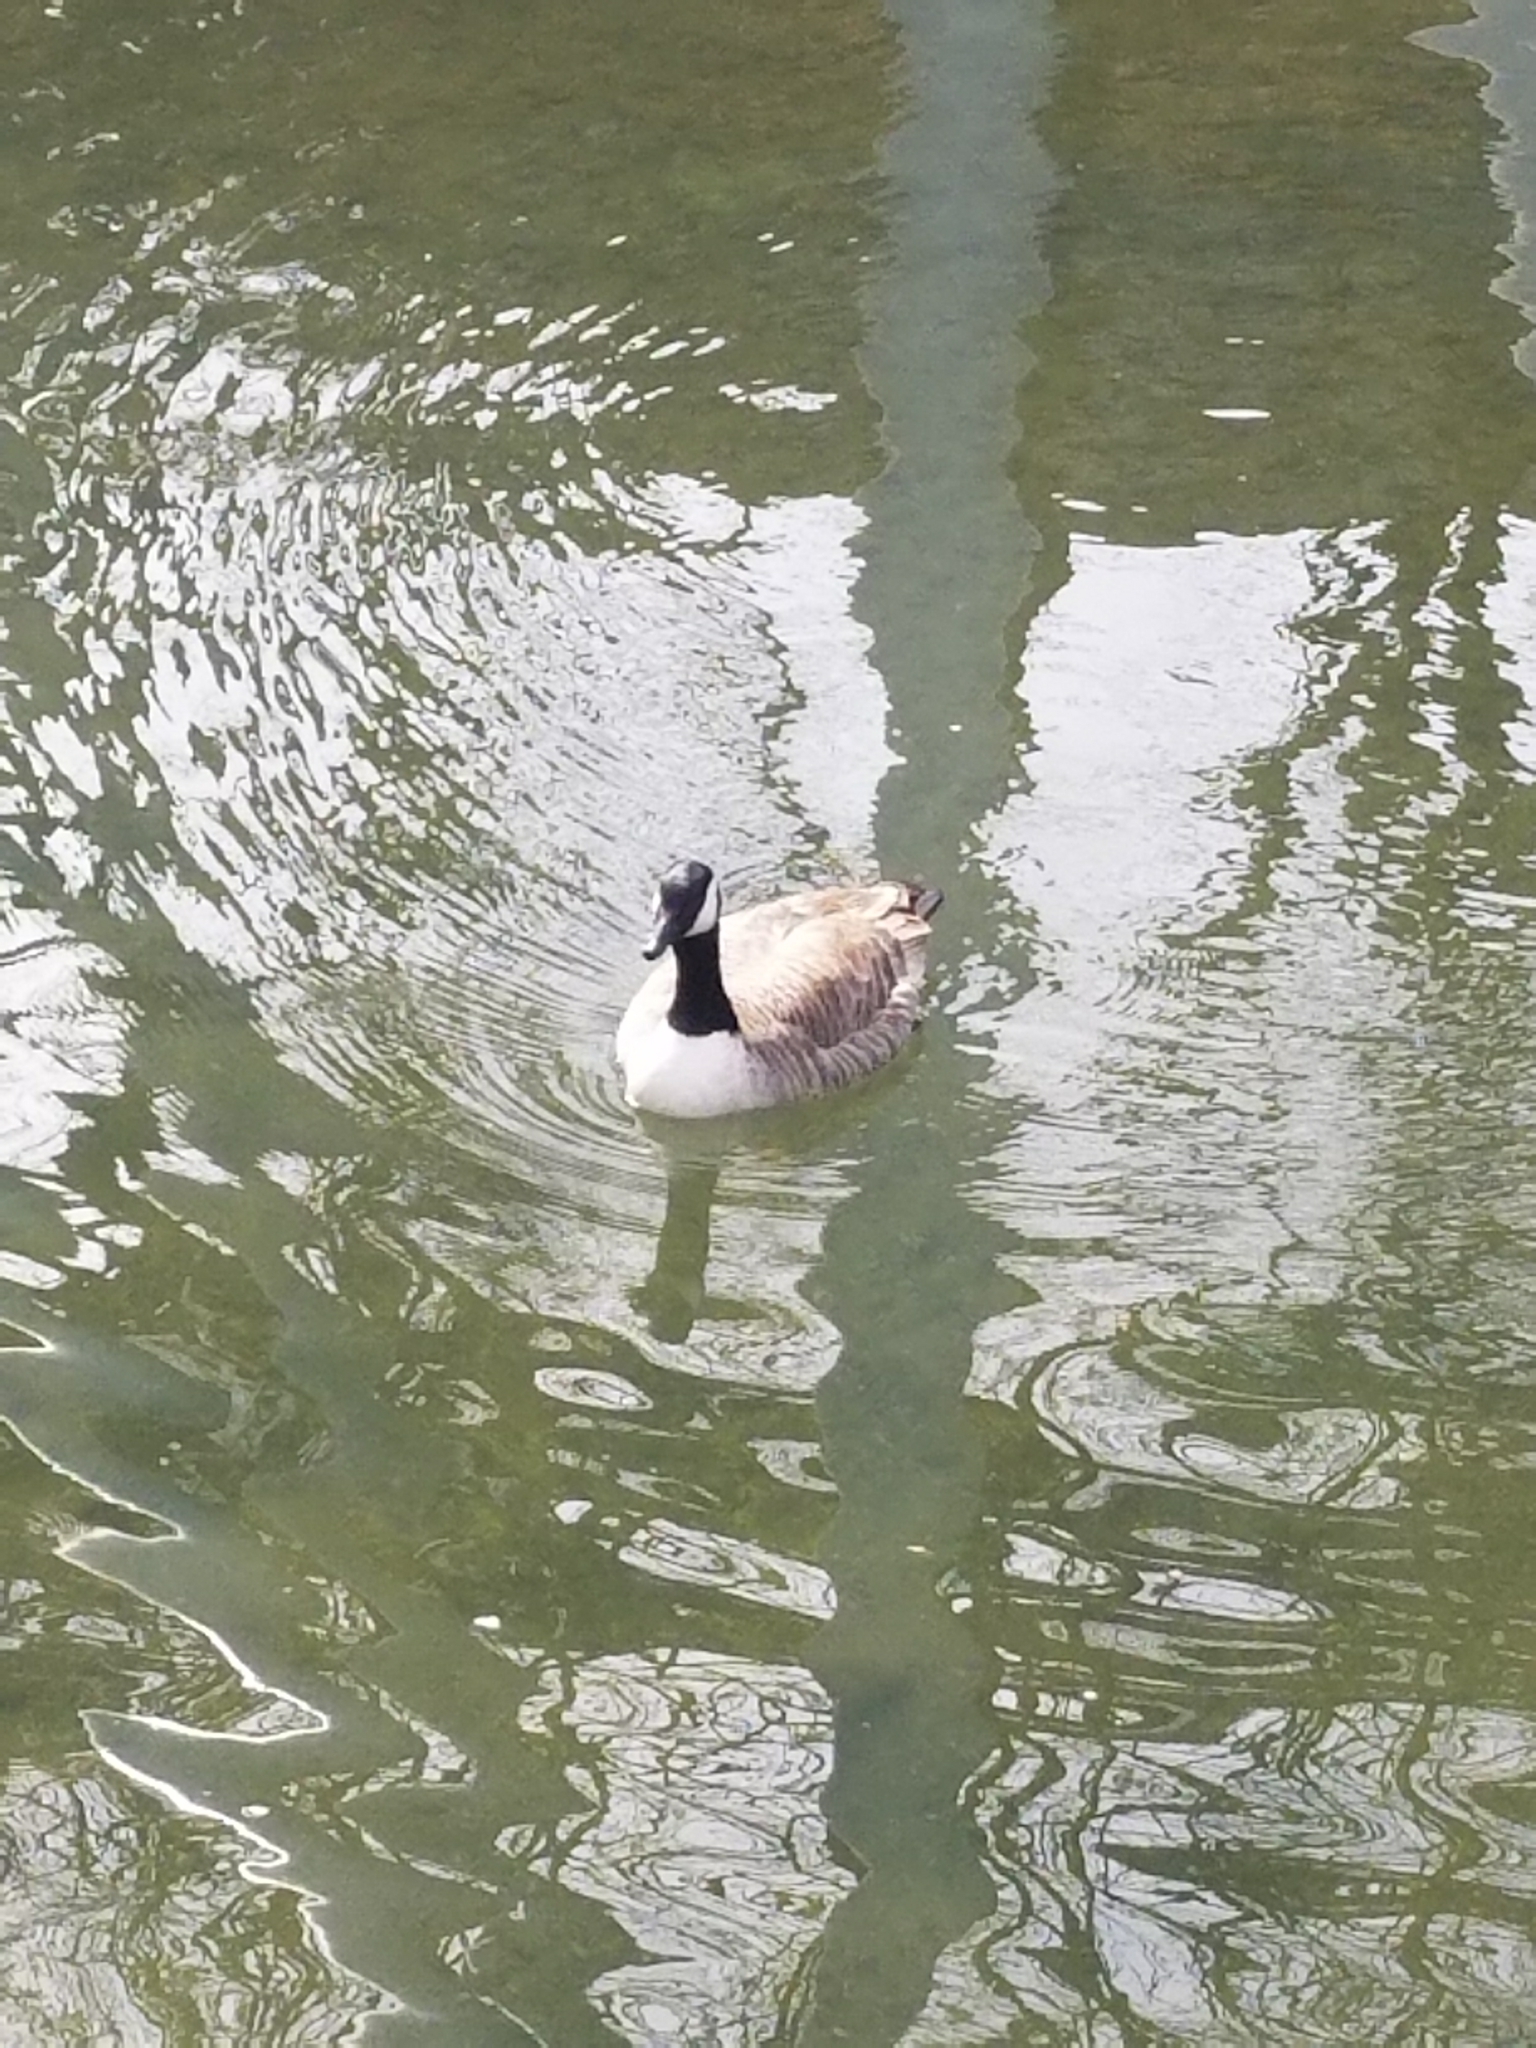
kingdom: Animalia
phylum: Chordata
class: Aves
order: Anseriformes
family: Anatidae
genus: Branta
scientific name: Branta canadensis
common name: Canada goose
